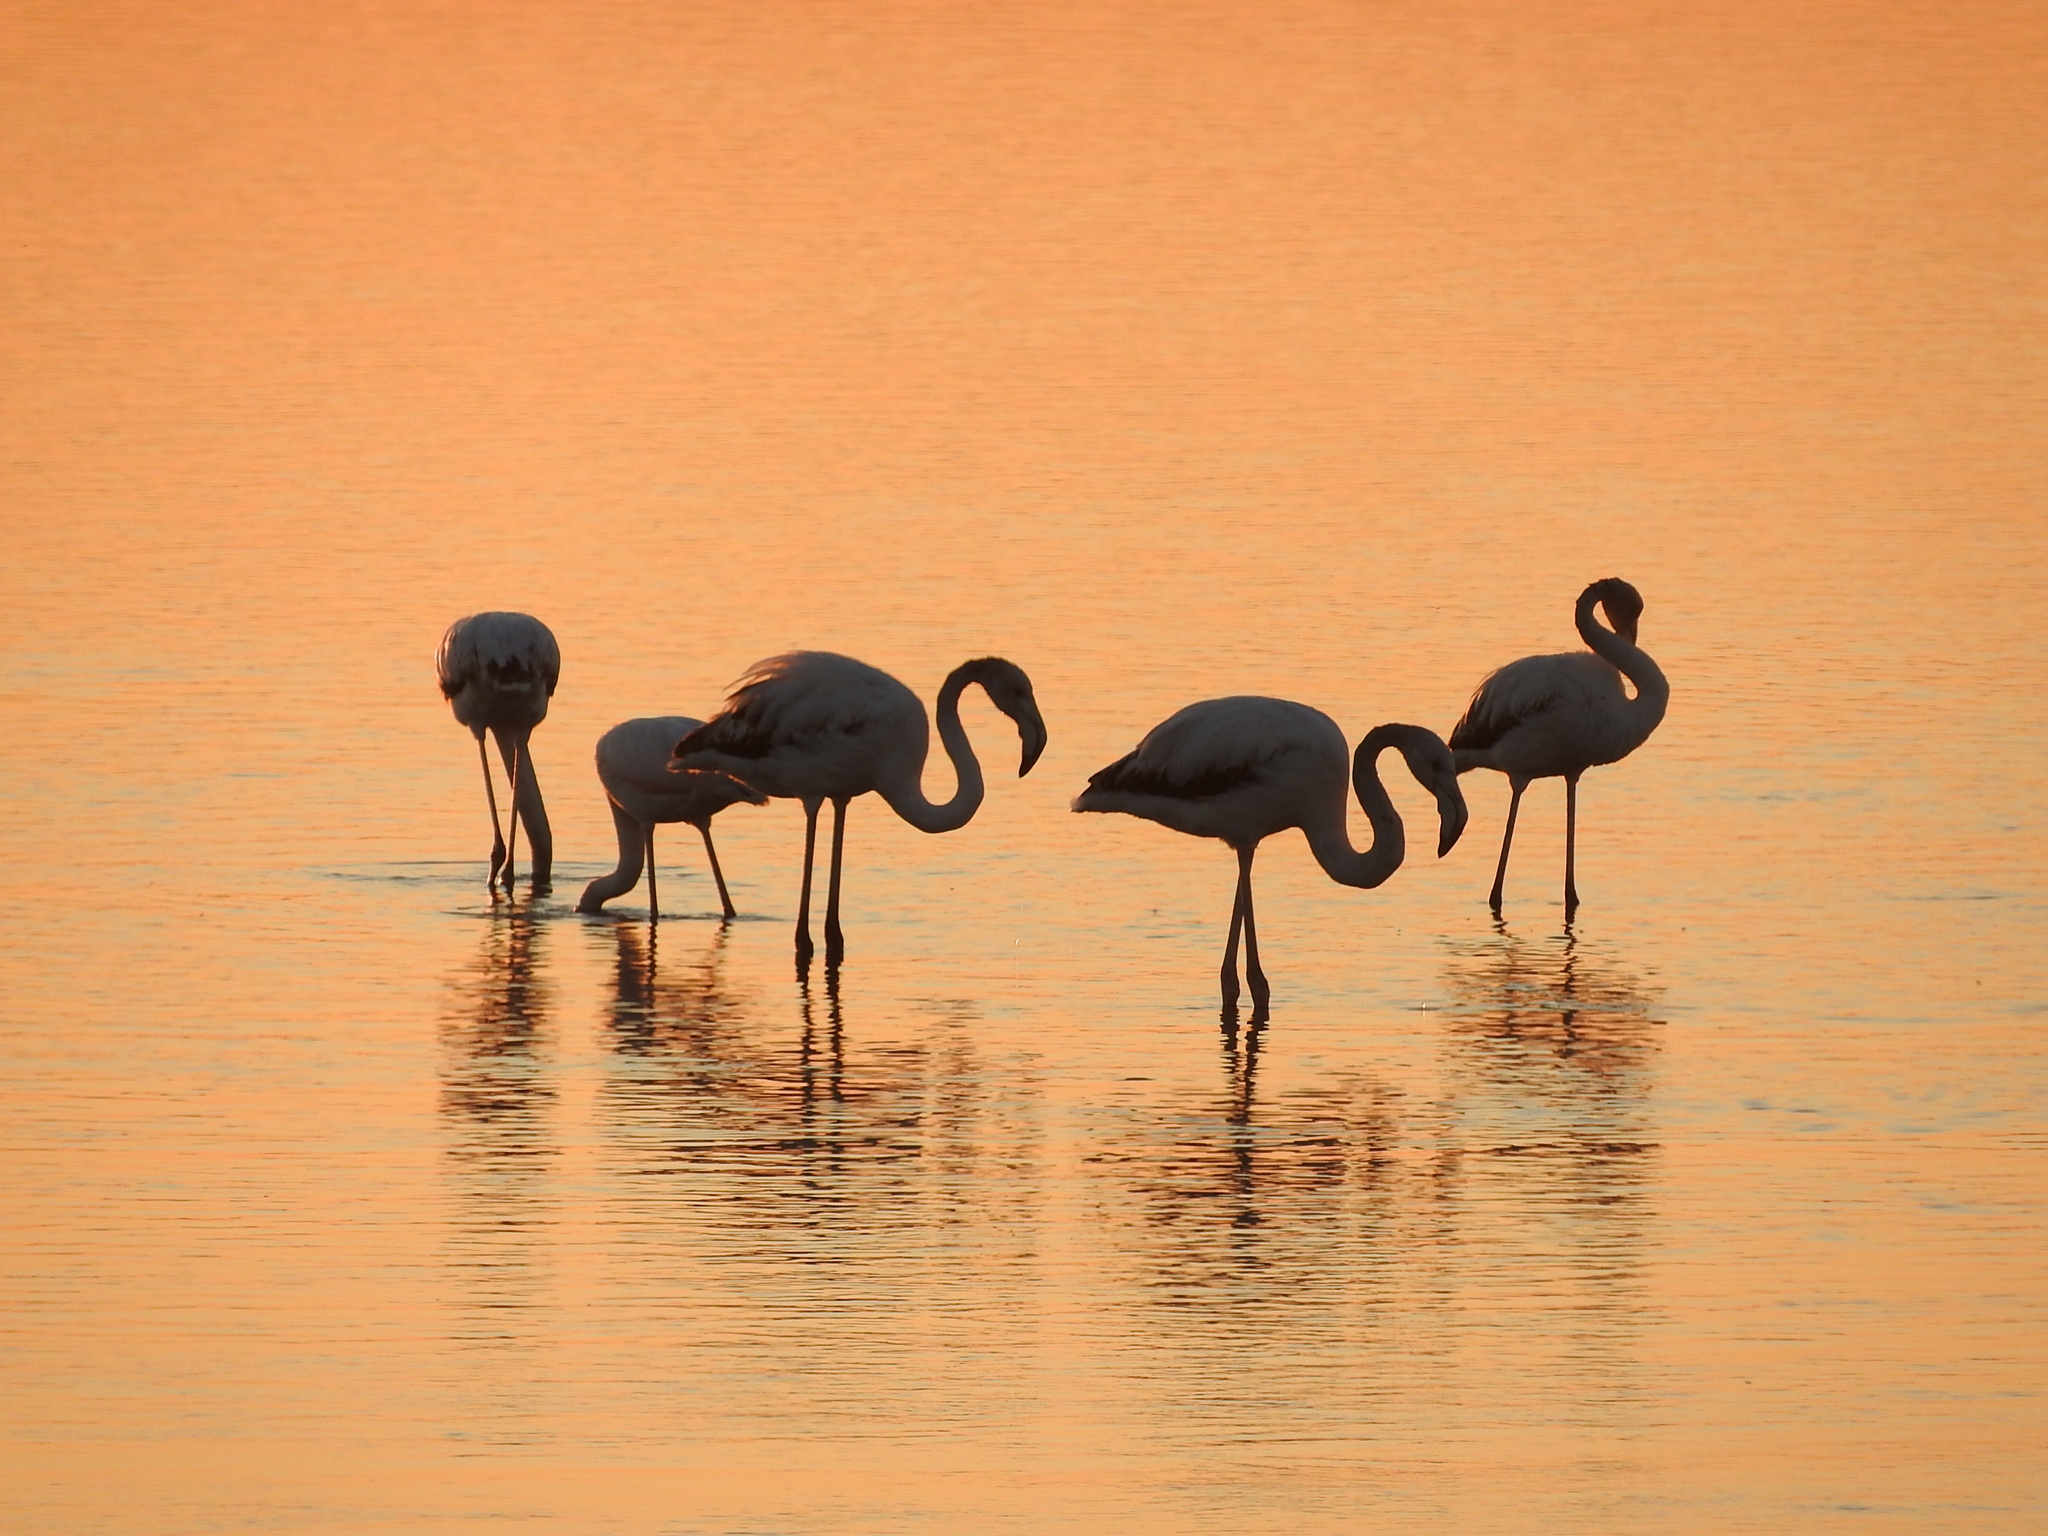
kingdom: Animalia
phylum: Chordata
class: Aves
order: Phoenicopteriformes
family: Phoenicopteridae
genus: Phoenicopterus
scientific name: Phoenicopterus roseus
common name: Greater flamingo
